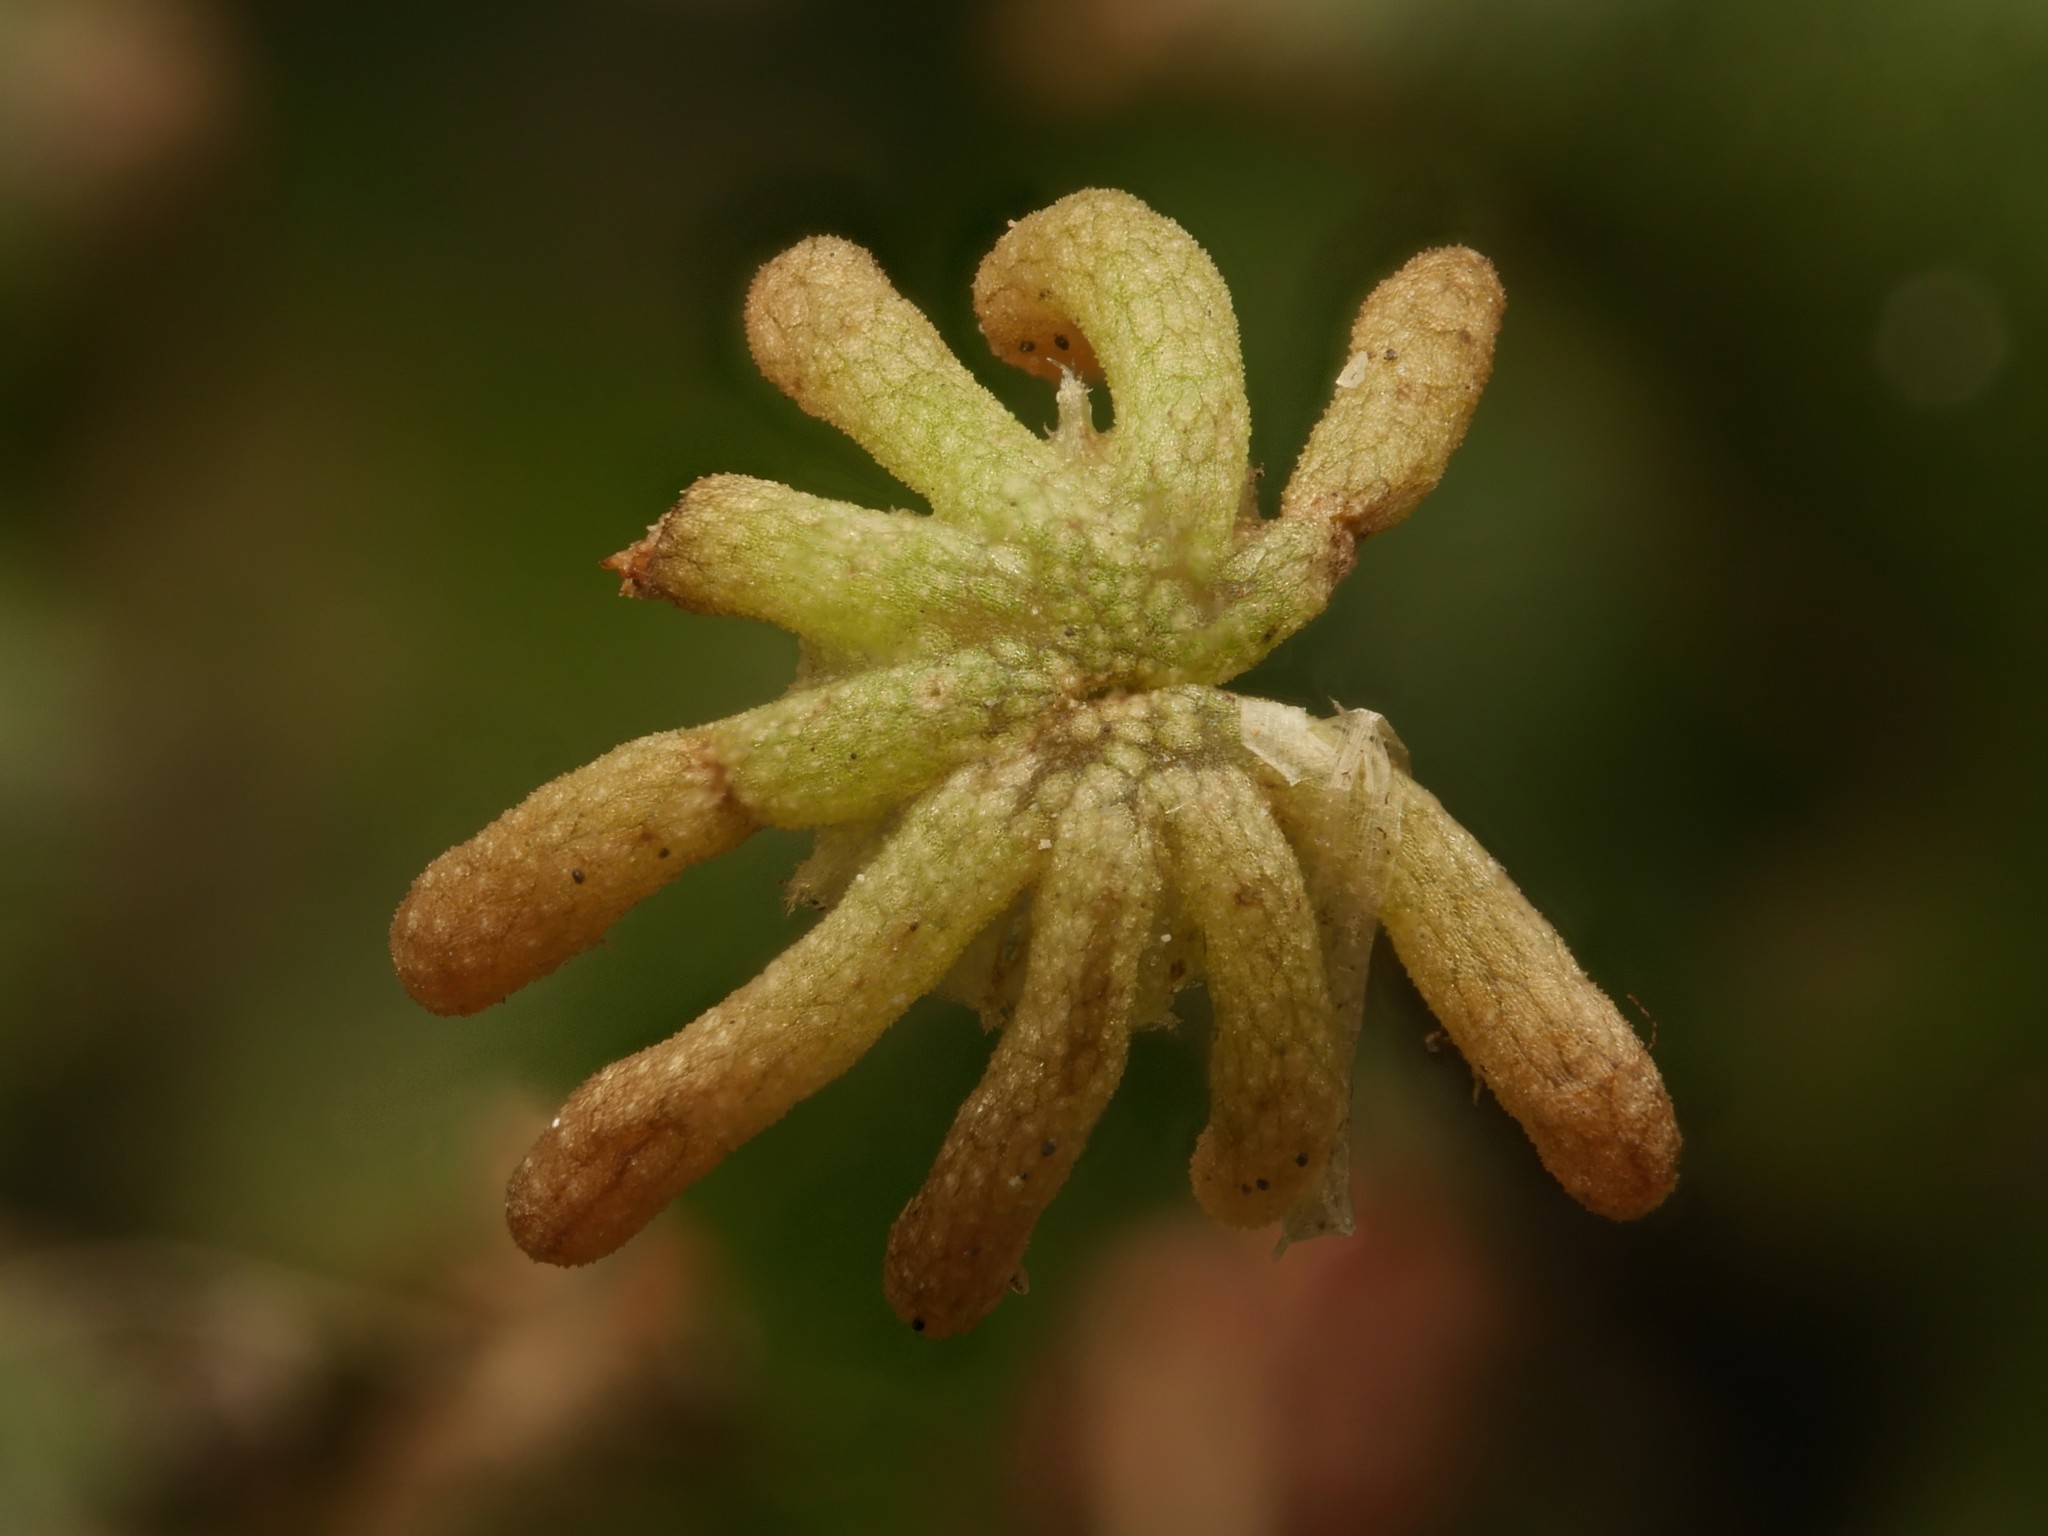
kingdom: Plantae
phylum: Marchantiophyta
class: Marchantiopsida
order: Marchantiales
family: Marchantiaceae
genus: Marchantia
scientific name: Marchantia polymorpha
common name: Common liverwort
